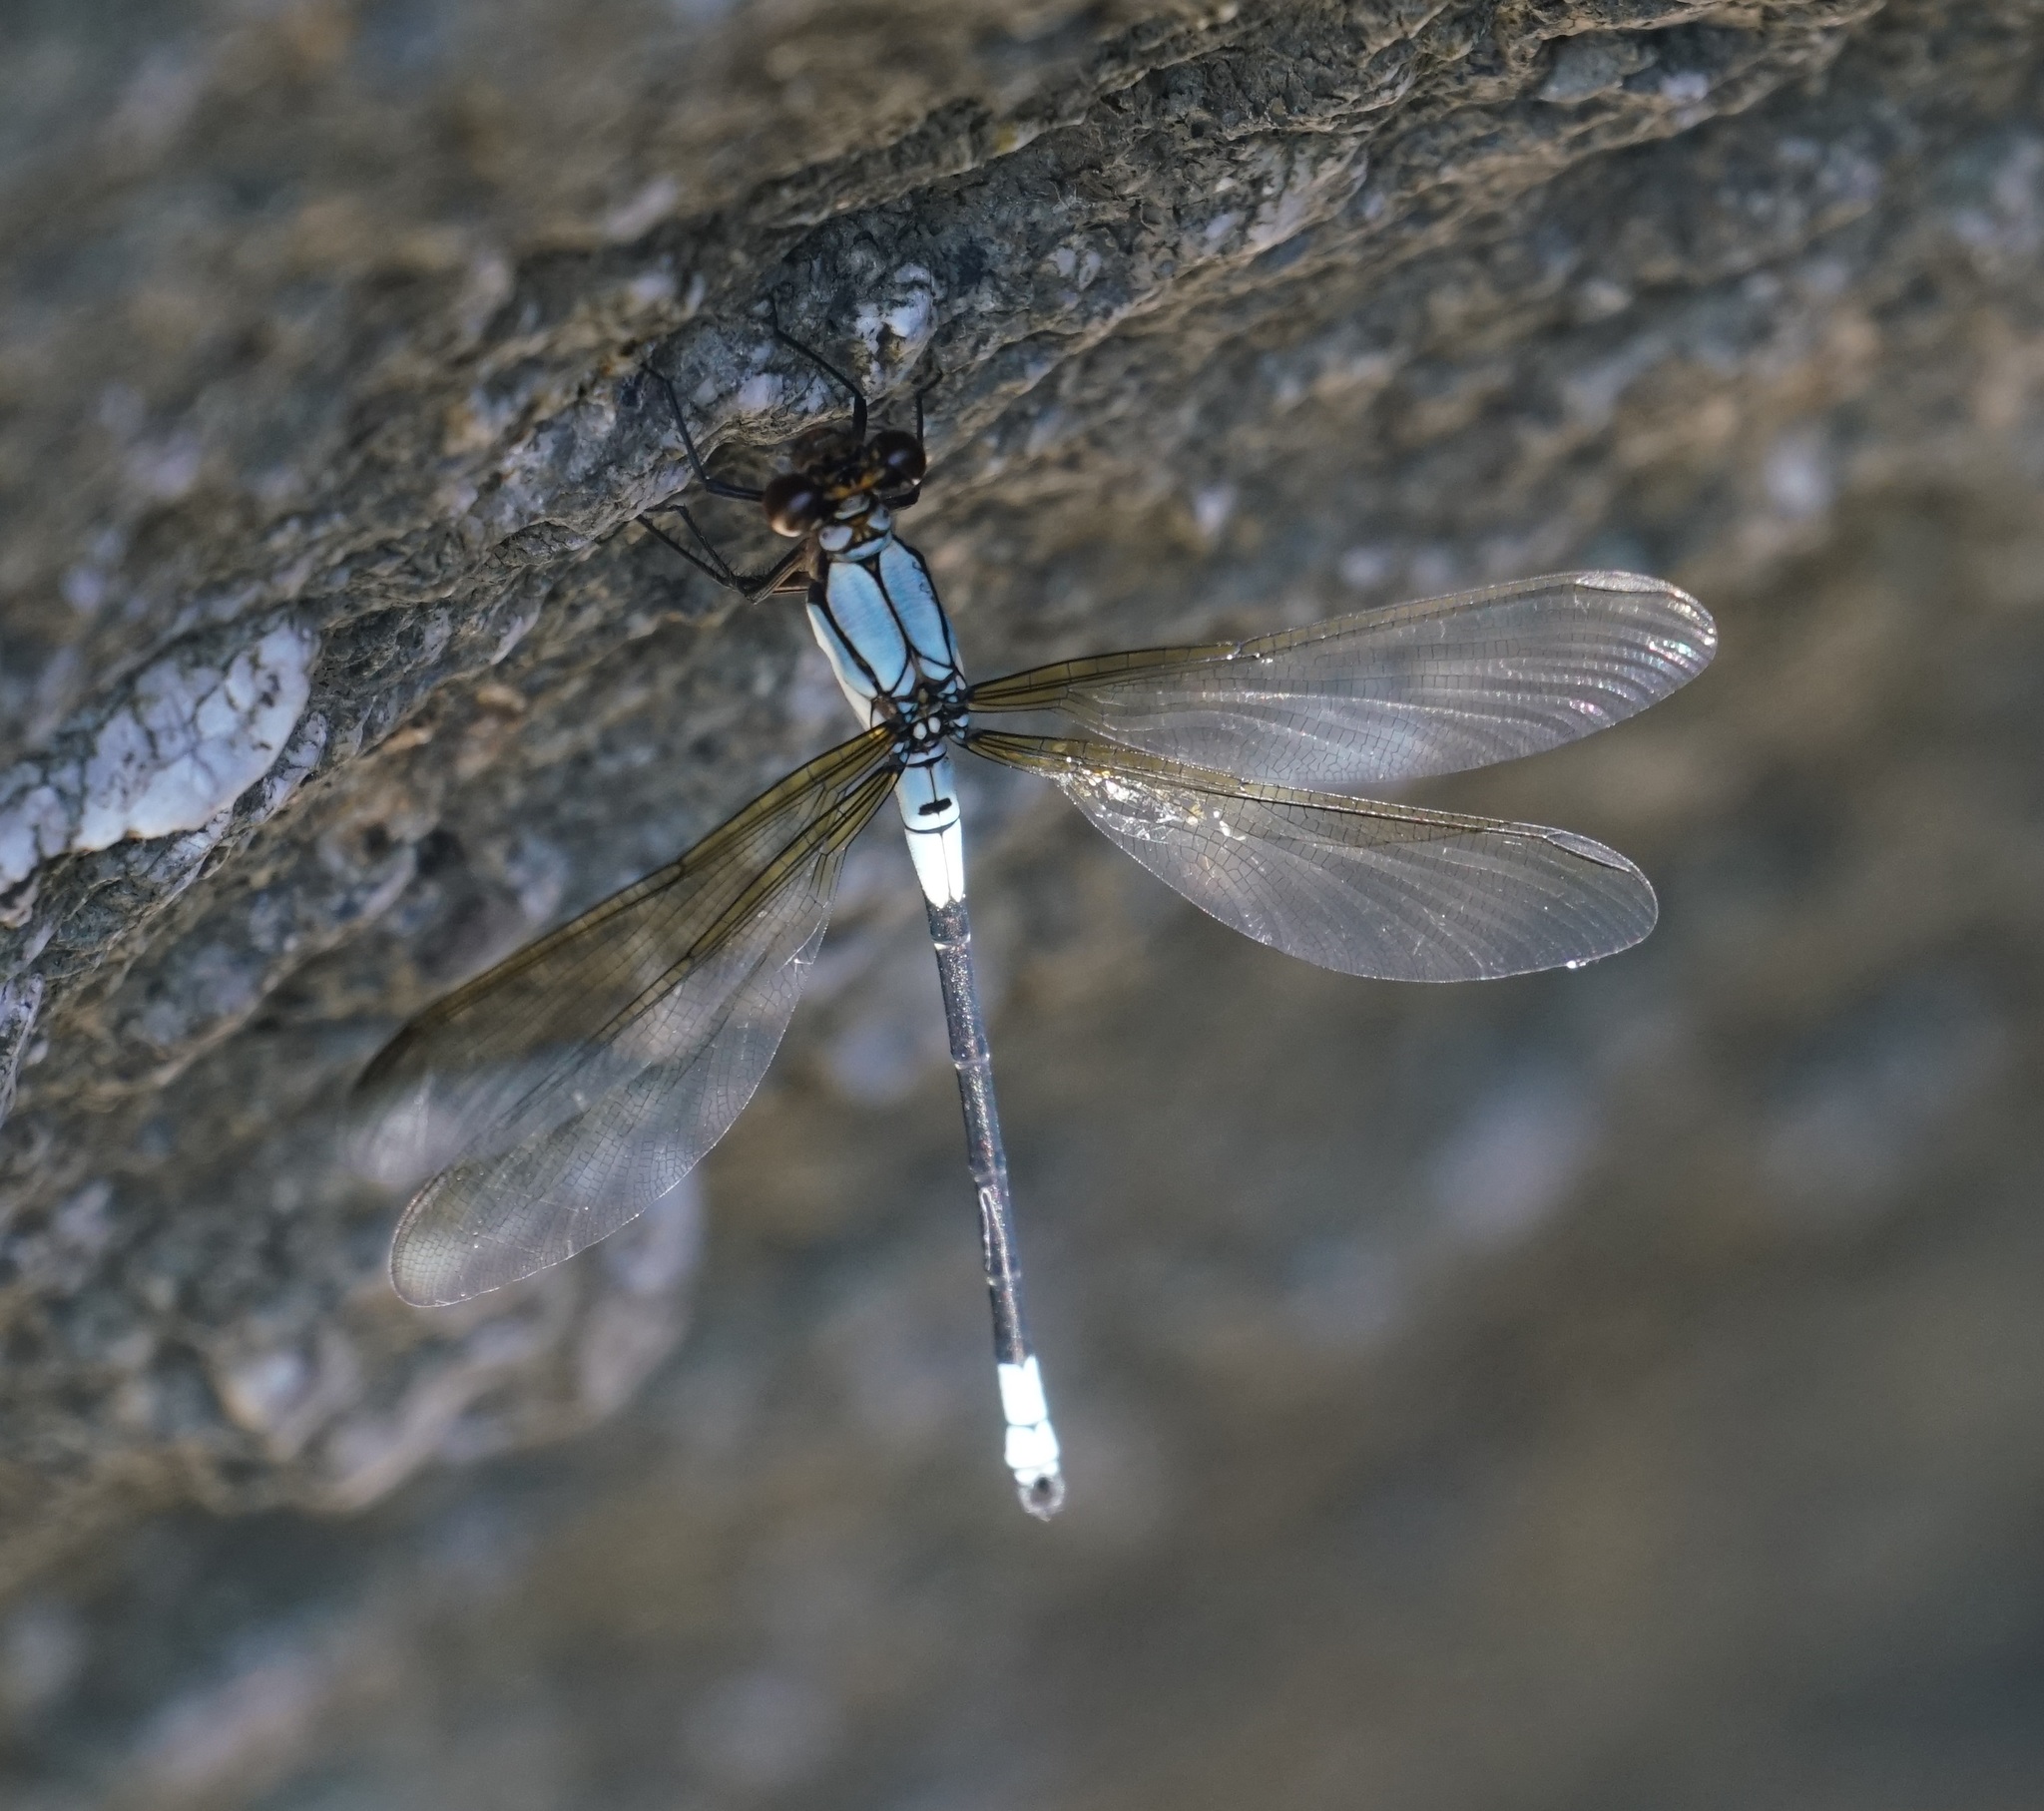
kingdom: Animalia
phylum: Arthropoda
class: Insecta
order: Odonata
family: Lestoideidae
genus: Diphlebia
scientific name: Diphlebia euphoeoides
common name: Tropical rockmaster
